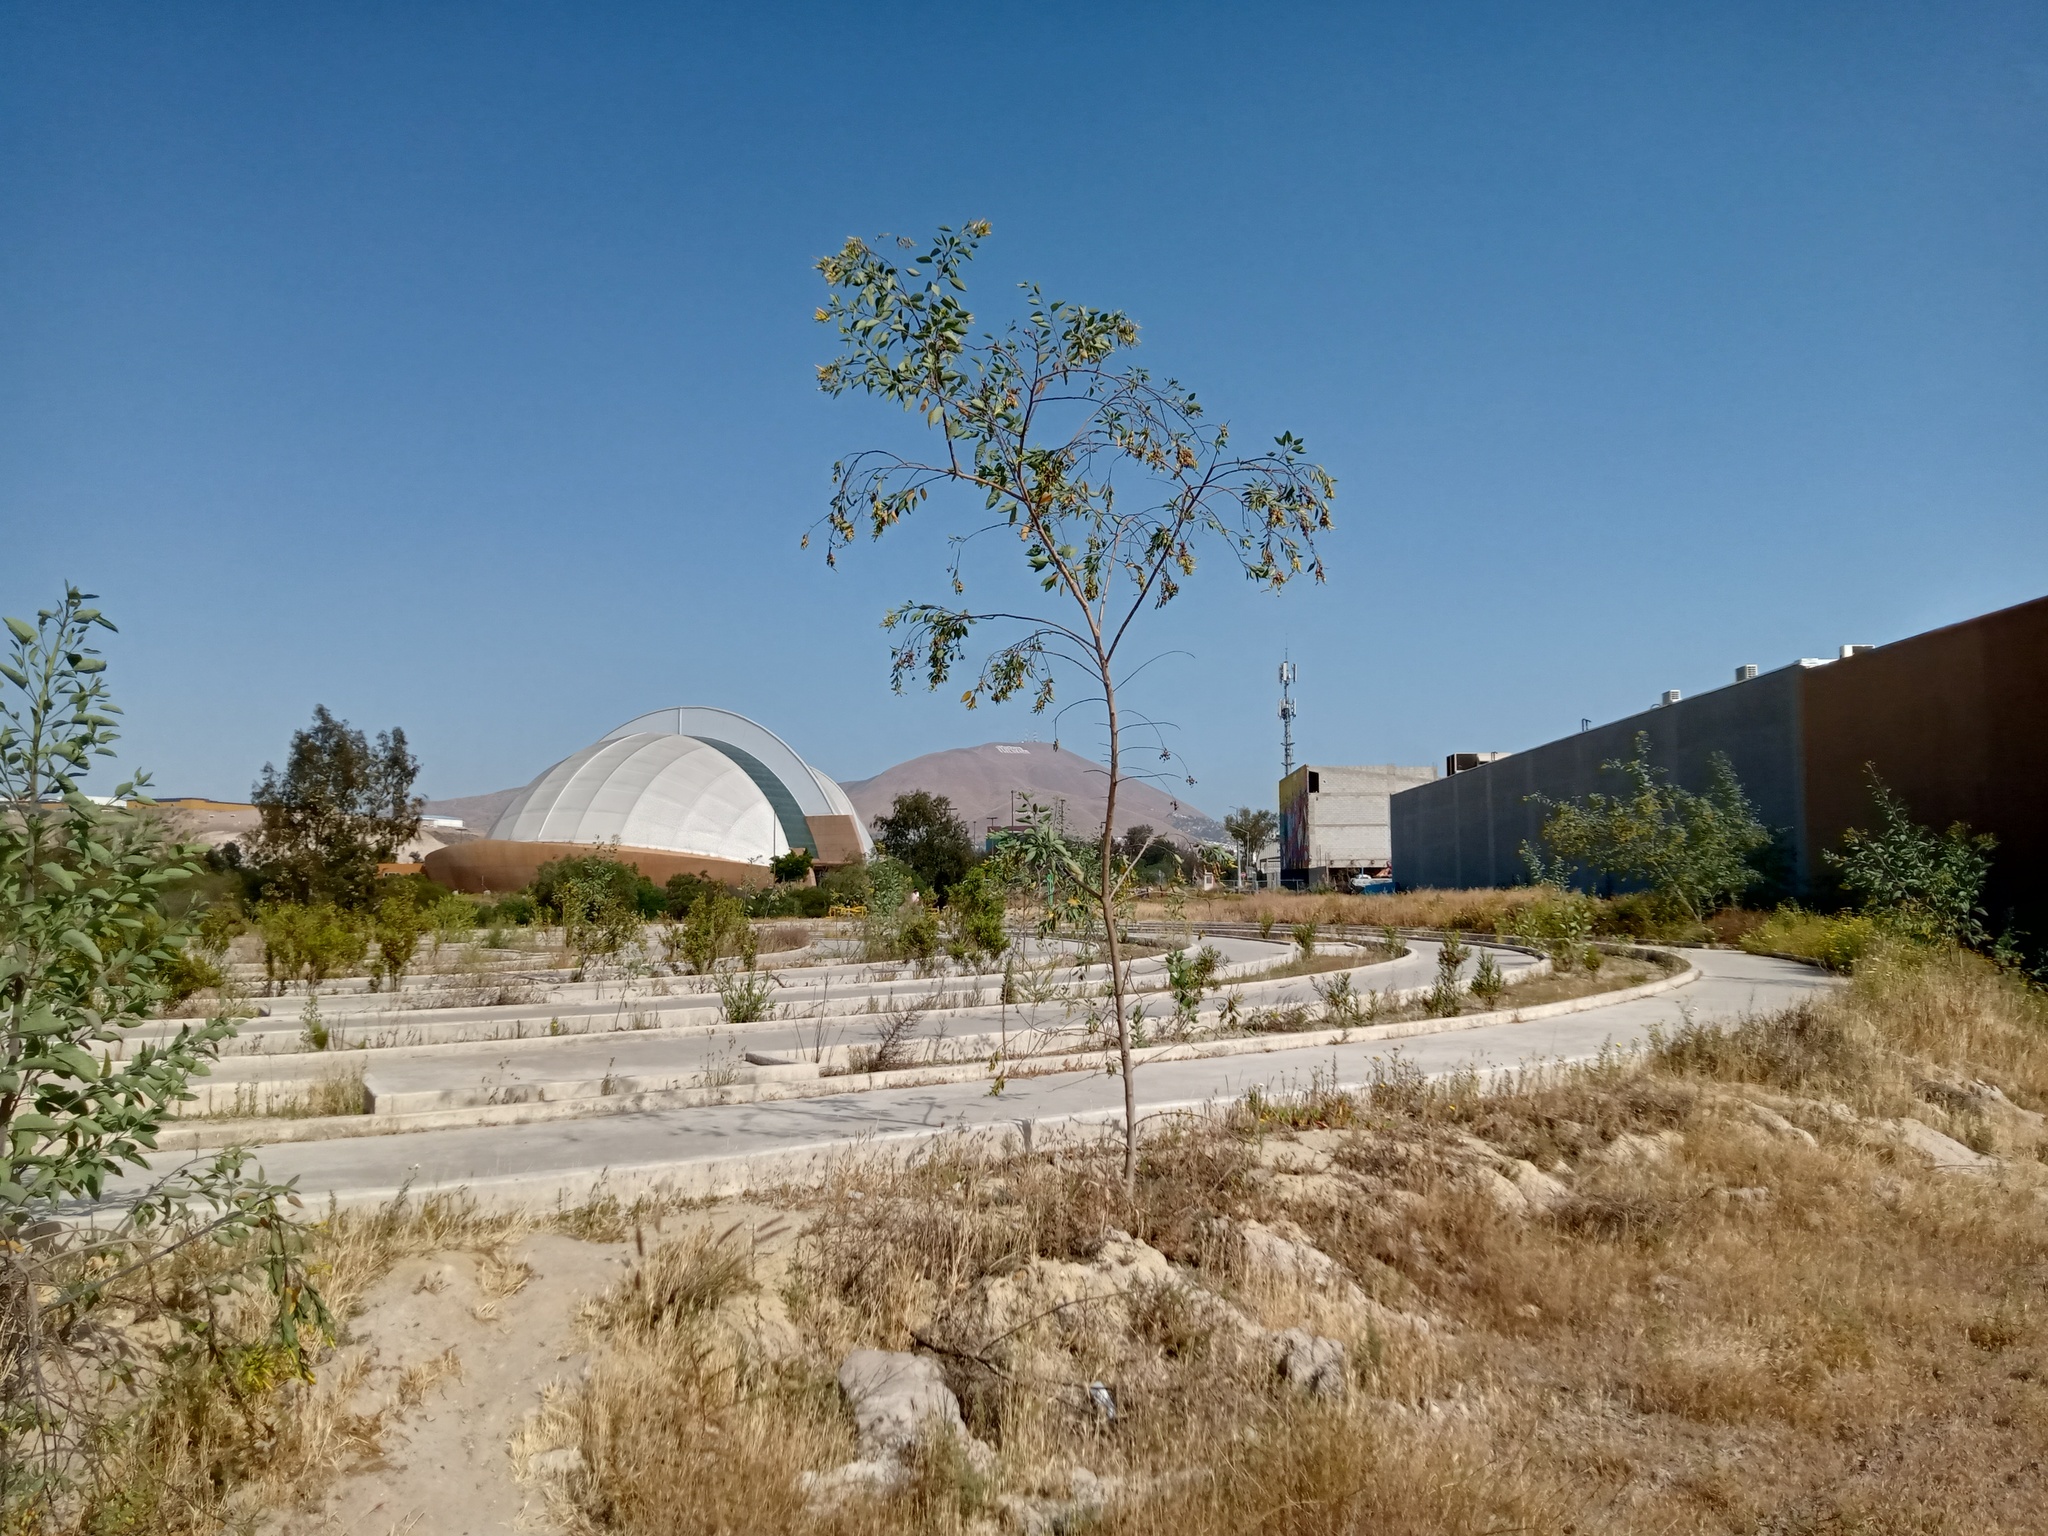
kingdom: Plantae
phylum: Tracheophyta
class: Magnoliopsida
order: Solanales
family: Solanaceae
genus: Nicotiana
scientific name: Nicotiana glauca
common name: Tree tobacco
